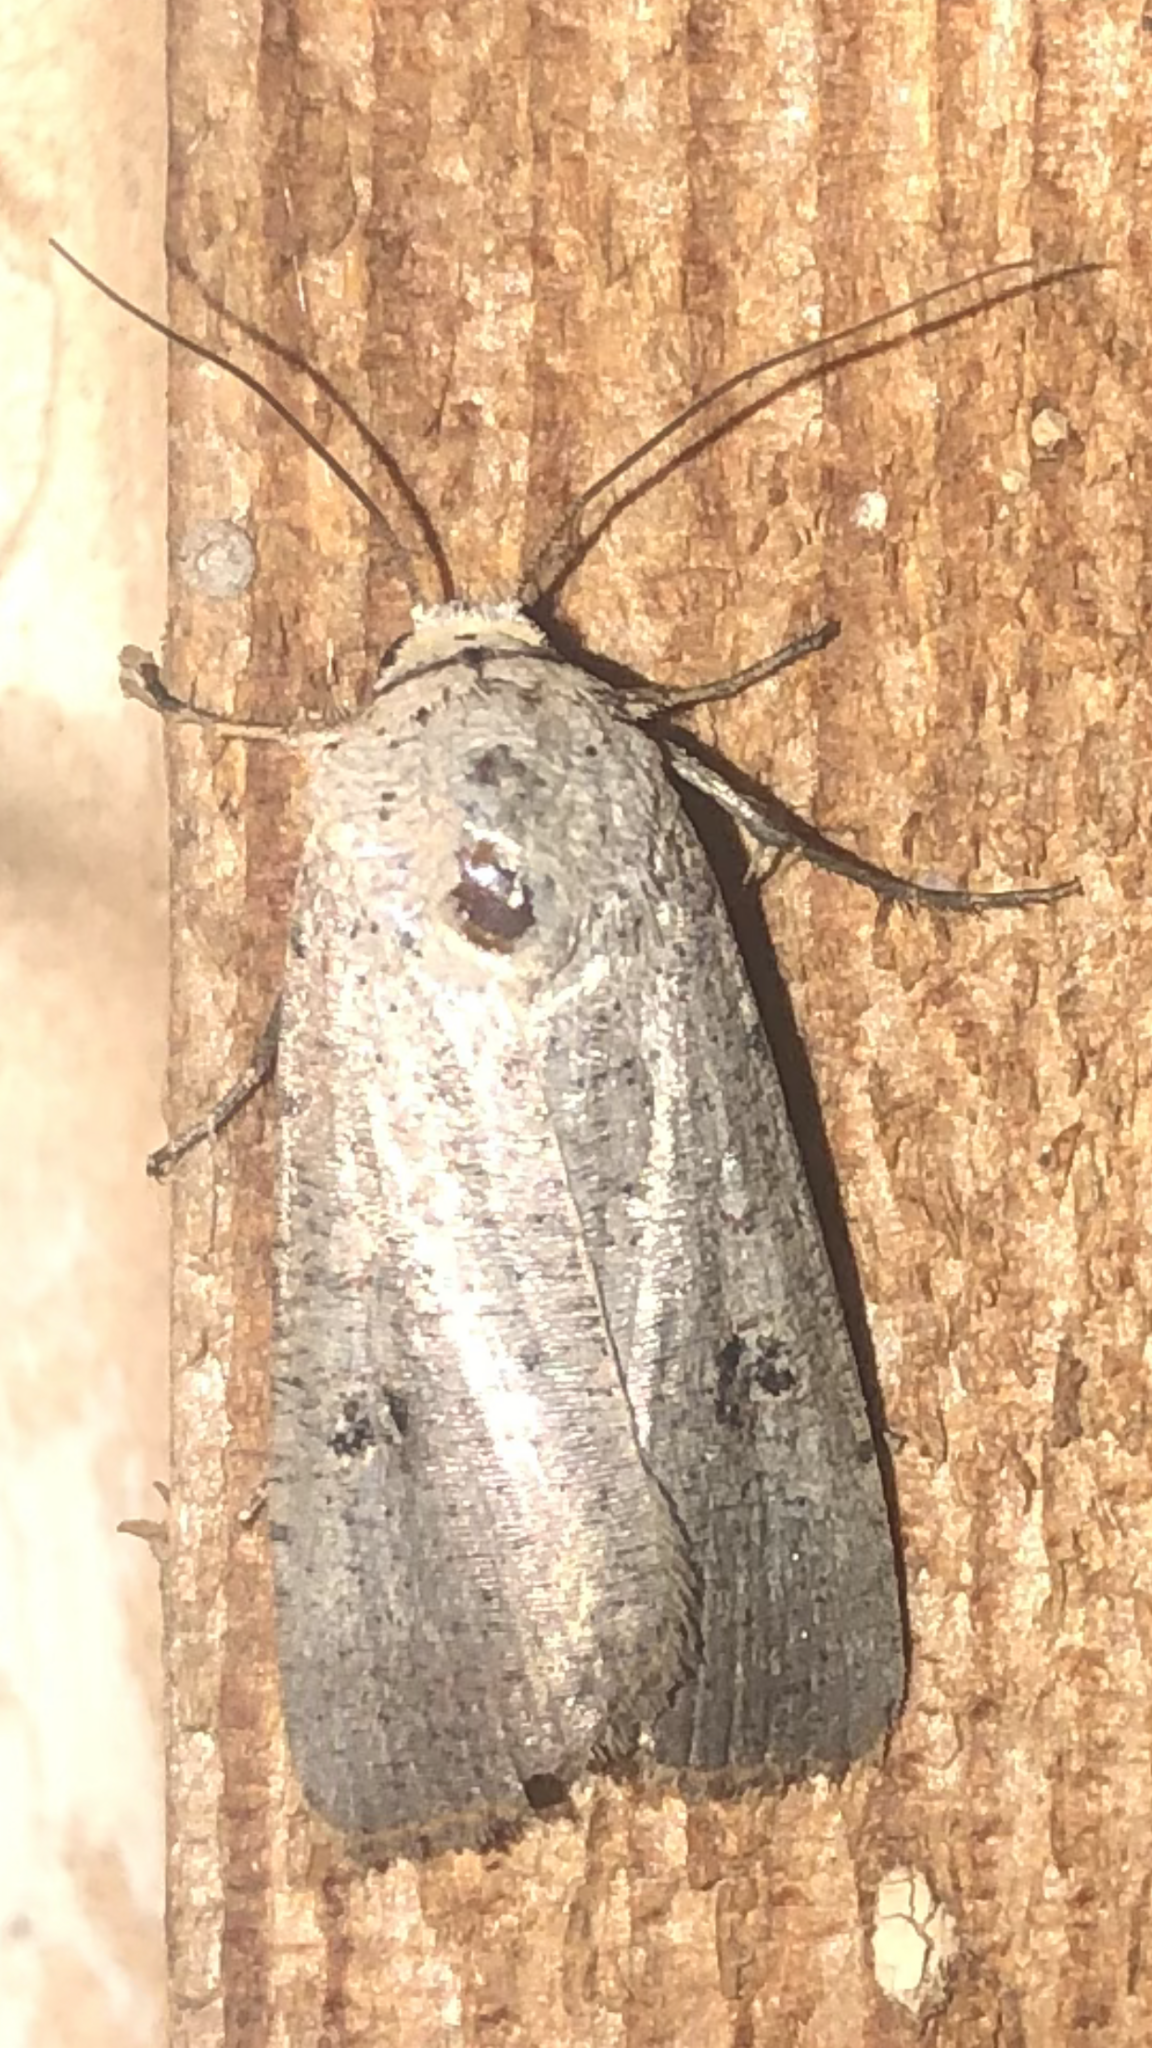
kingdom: Animalia
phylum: Arthropoda
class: Insecta
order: Lepidoptera
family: Noctuidae
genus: Anicla
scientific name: Anicla infecta
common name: Green cutworm
